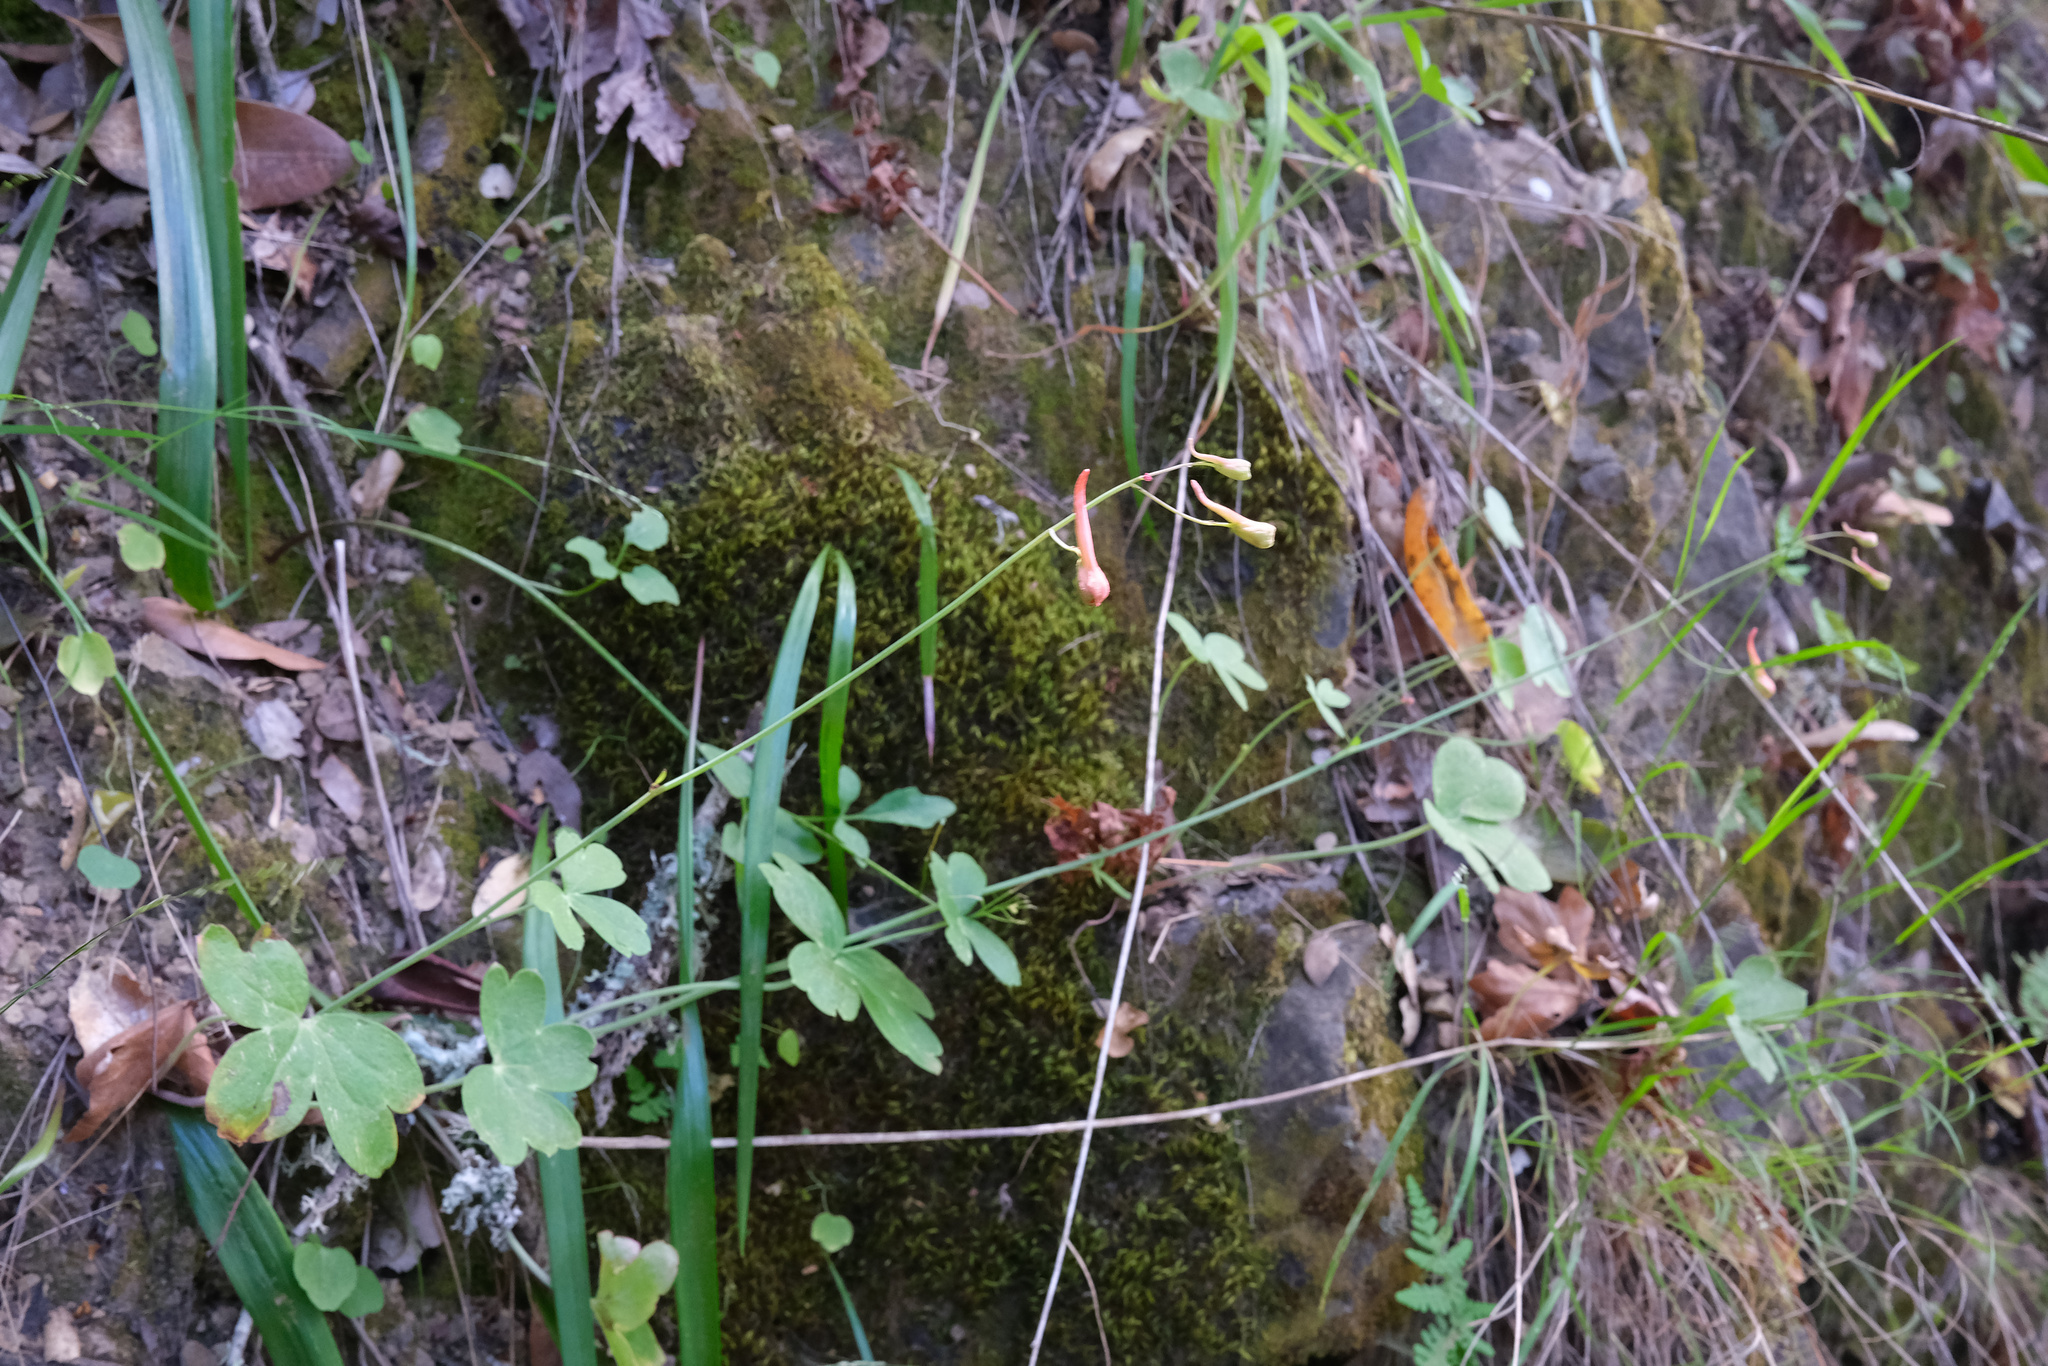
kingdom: Plantae
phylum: Tracheophyta
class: Magnoliopsida
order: Ranunculales
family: Ranunculaceae
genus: Delphinium
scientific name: Delphinium nudicaule
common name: Red larkspur
